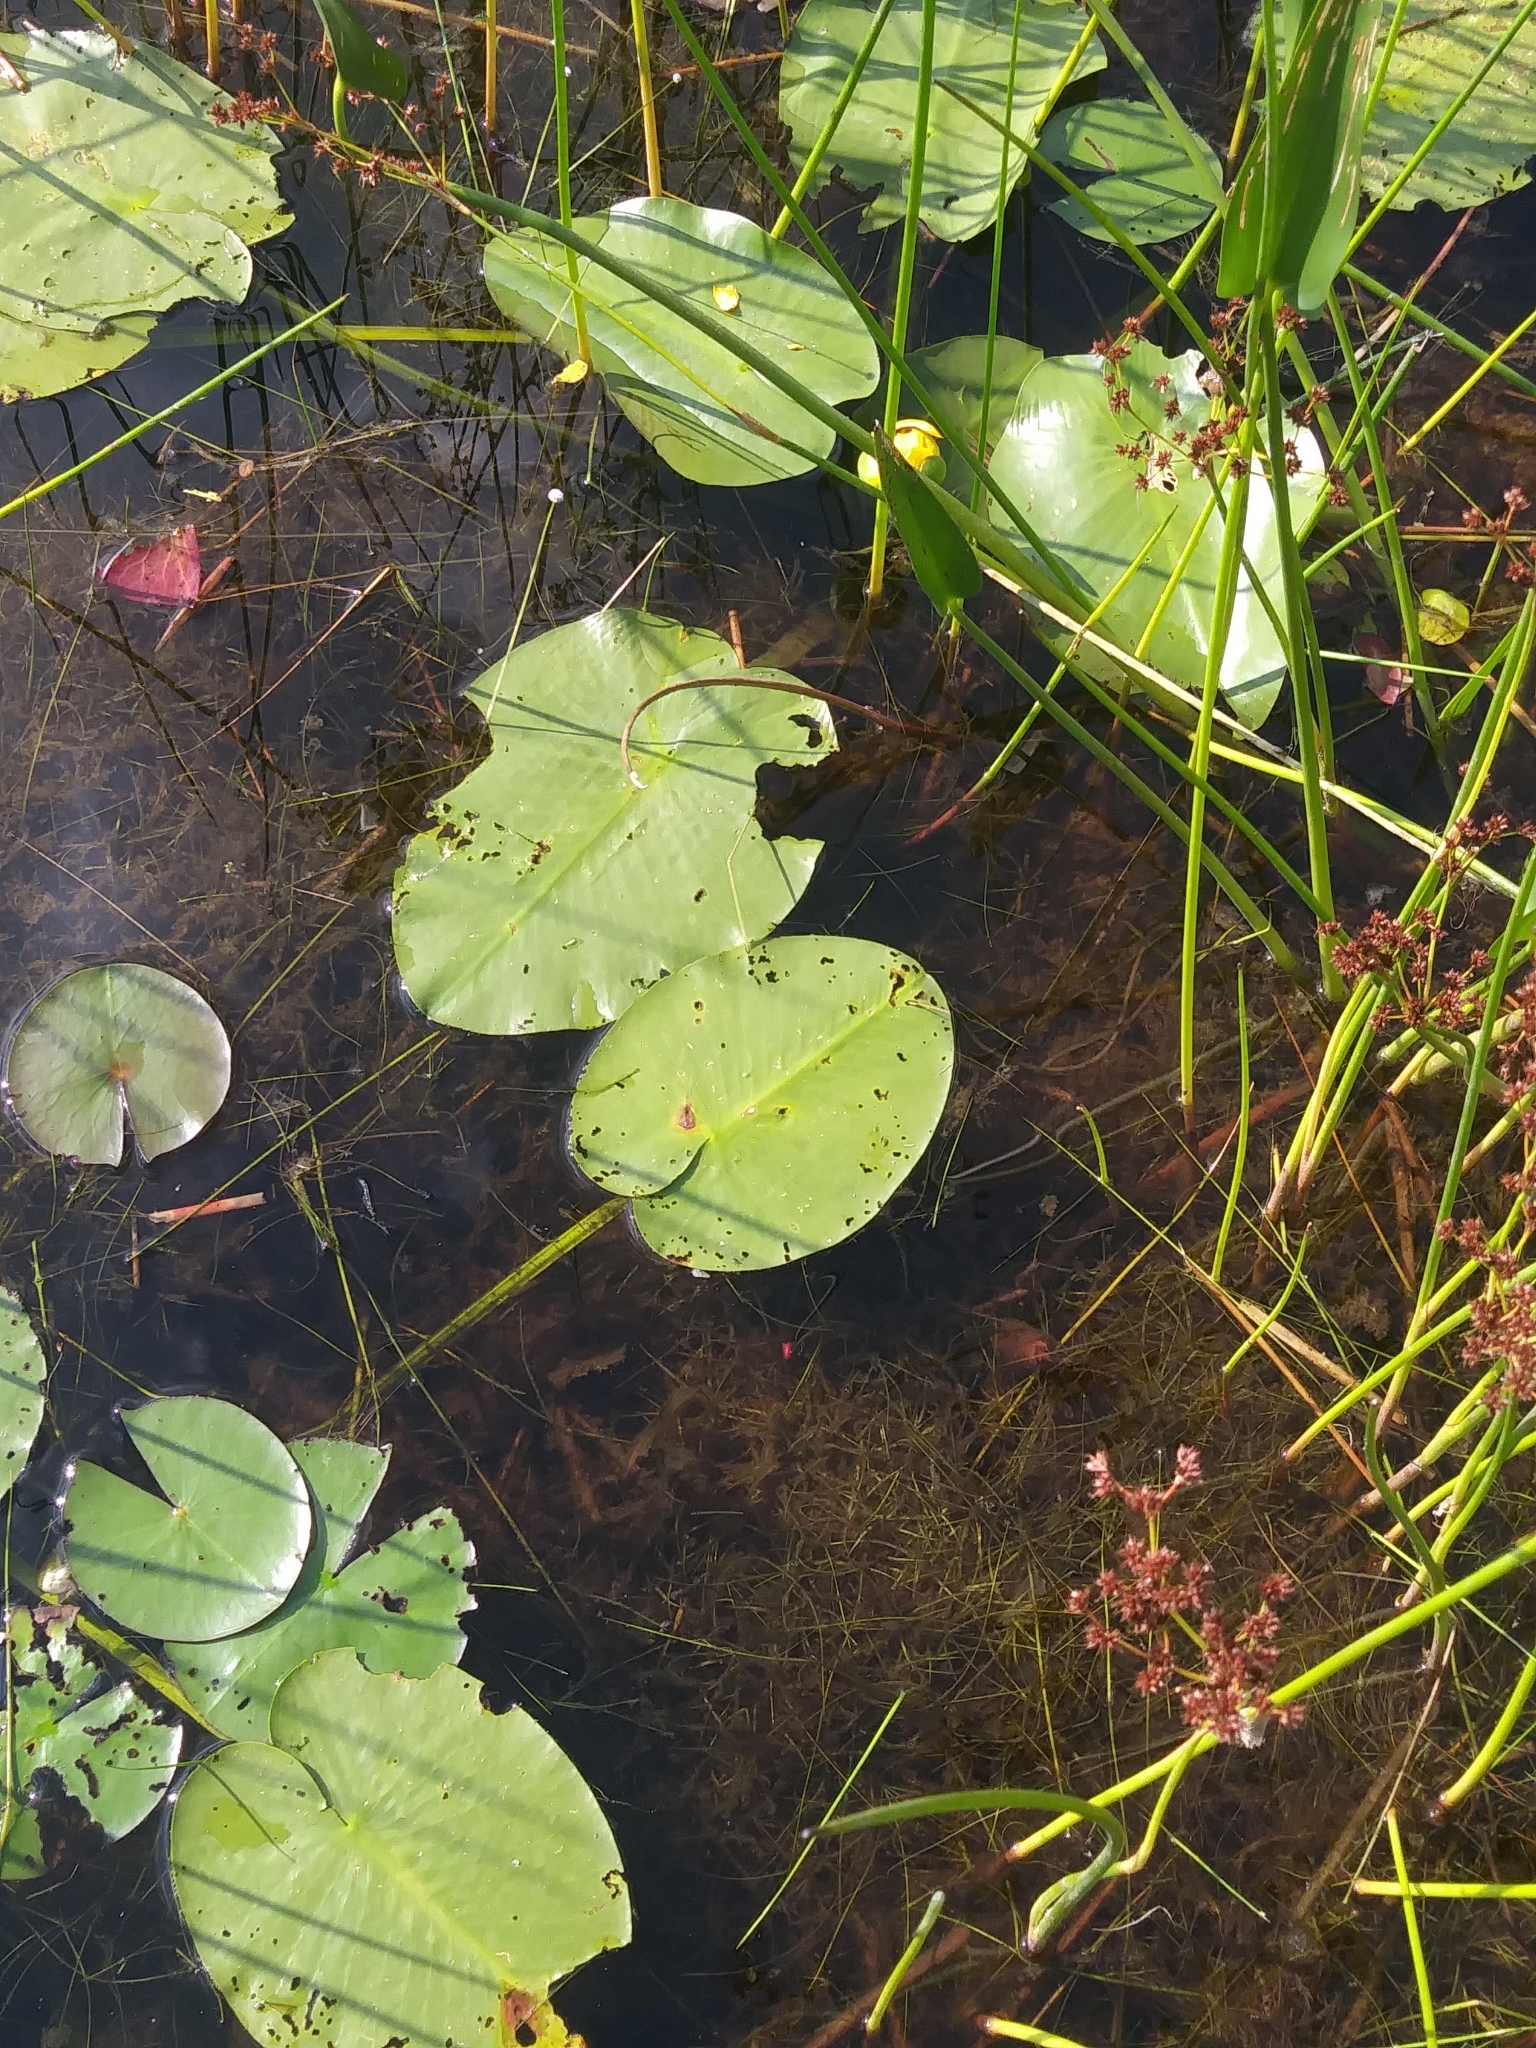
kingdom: Plantae
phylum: Tracheophyta
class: Magnoliopsida
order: Nymphaeales
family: Nymphaeaceae
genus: Nuphar
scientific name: Nuphar variegata
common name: Beaver-root
